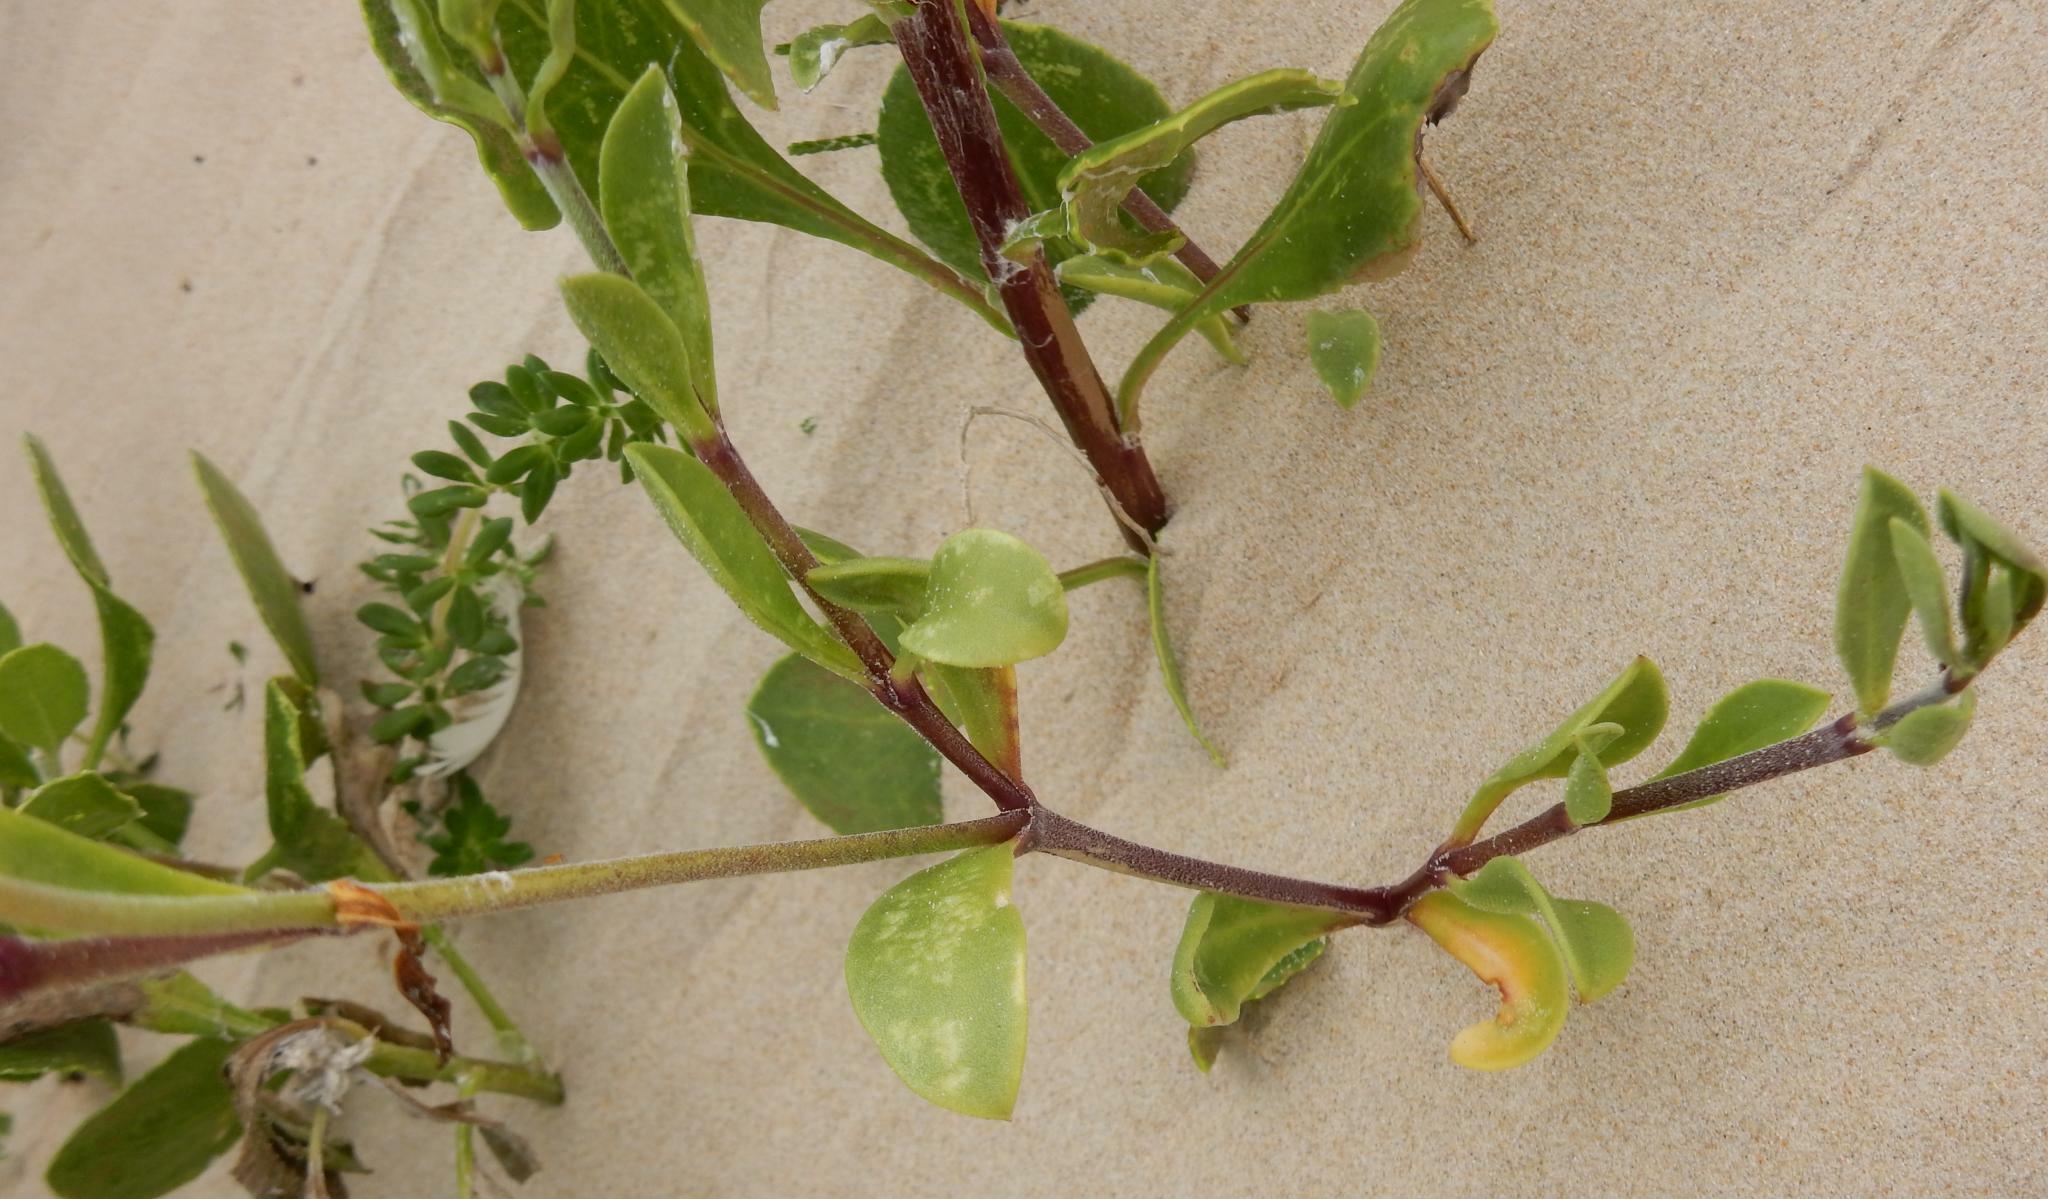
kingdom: Plantae
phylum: Tracheophyta
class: Magnoliopsida
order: Caryophyllales
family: Caryophyllaceae
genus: Silene
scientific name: Silene crassifolia
